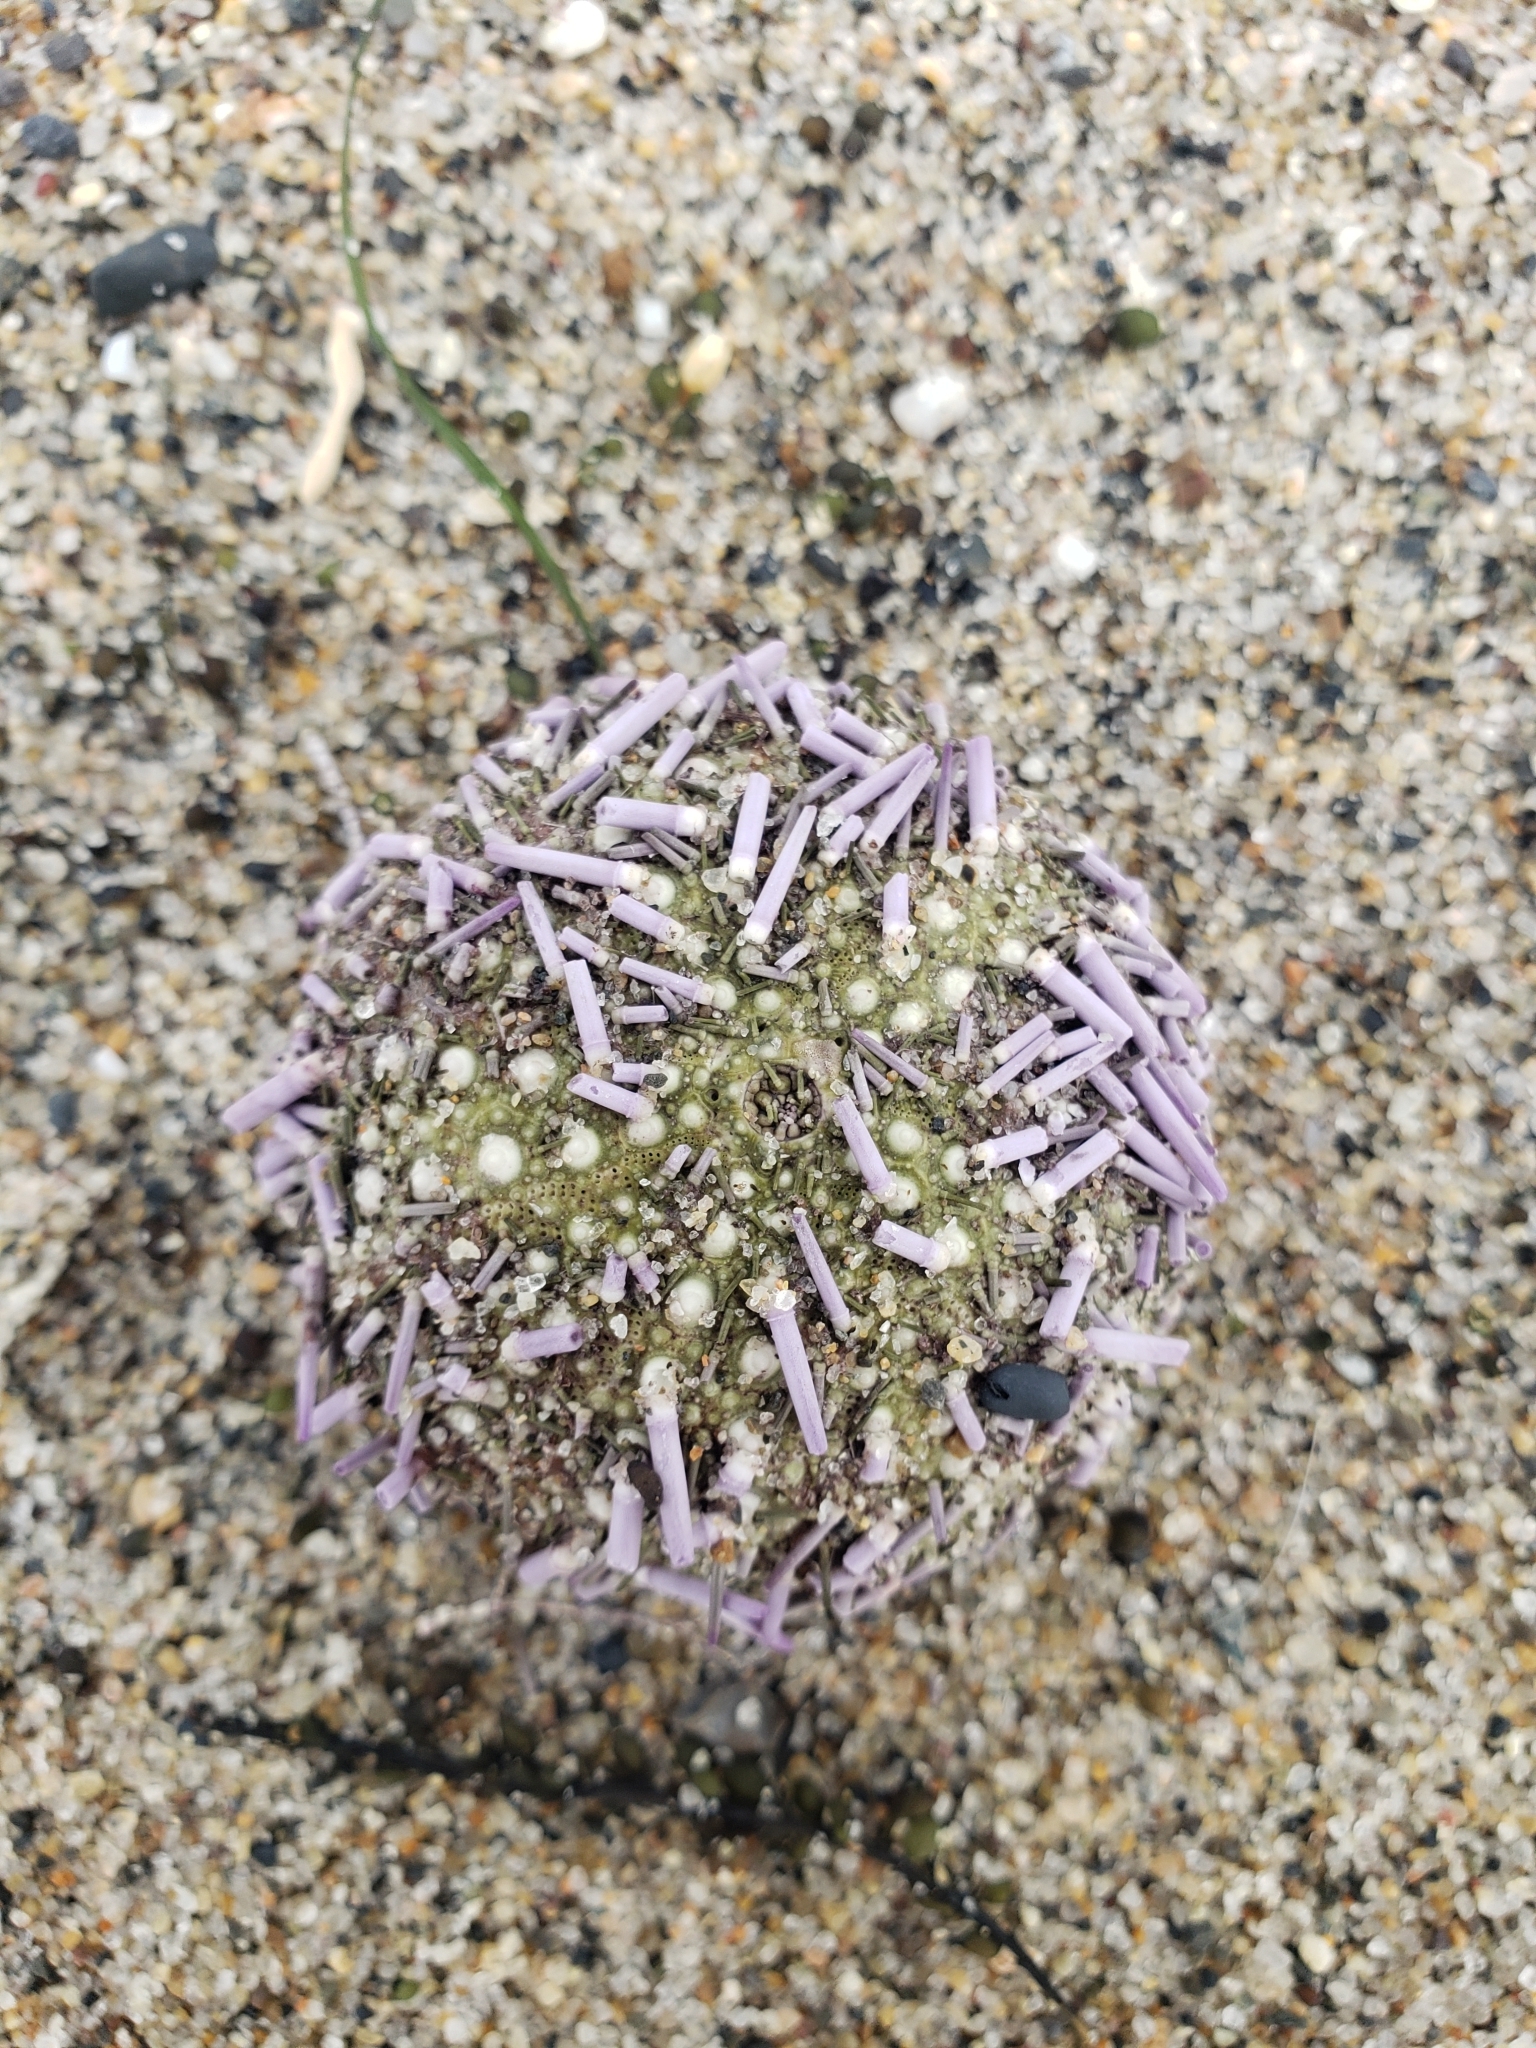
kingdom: Animalia
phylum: Echinodermata
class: Echinoidea
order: Camarodonta
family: Strongylocentrotidae
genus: Strongylocentrotus
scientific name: Strongylocentrotus purpuratus
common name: Purple sea urchin
